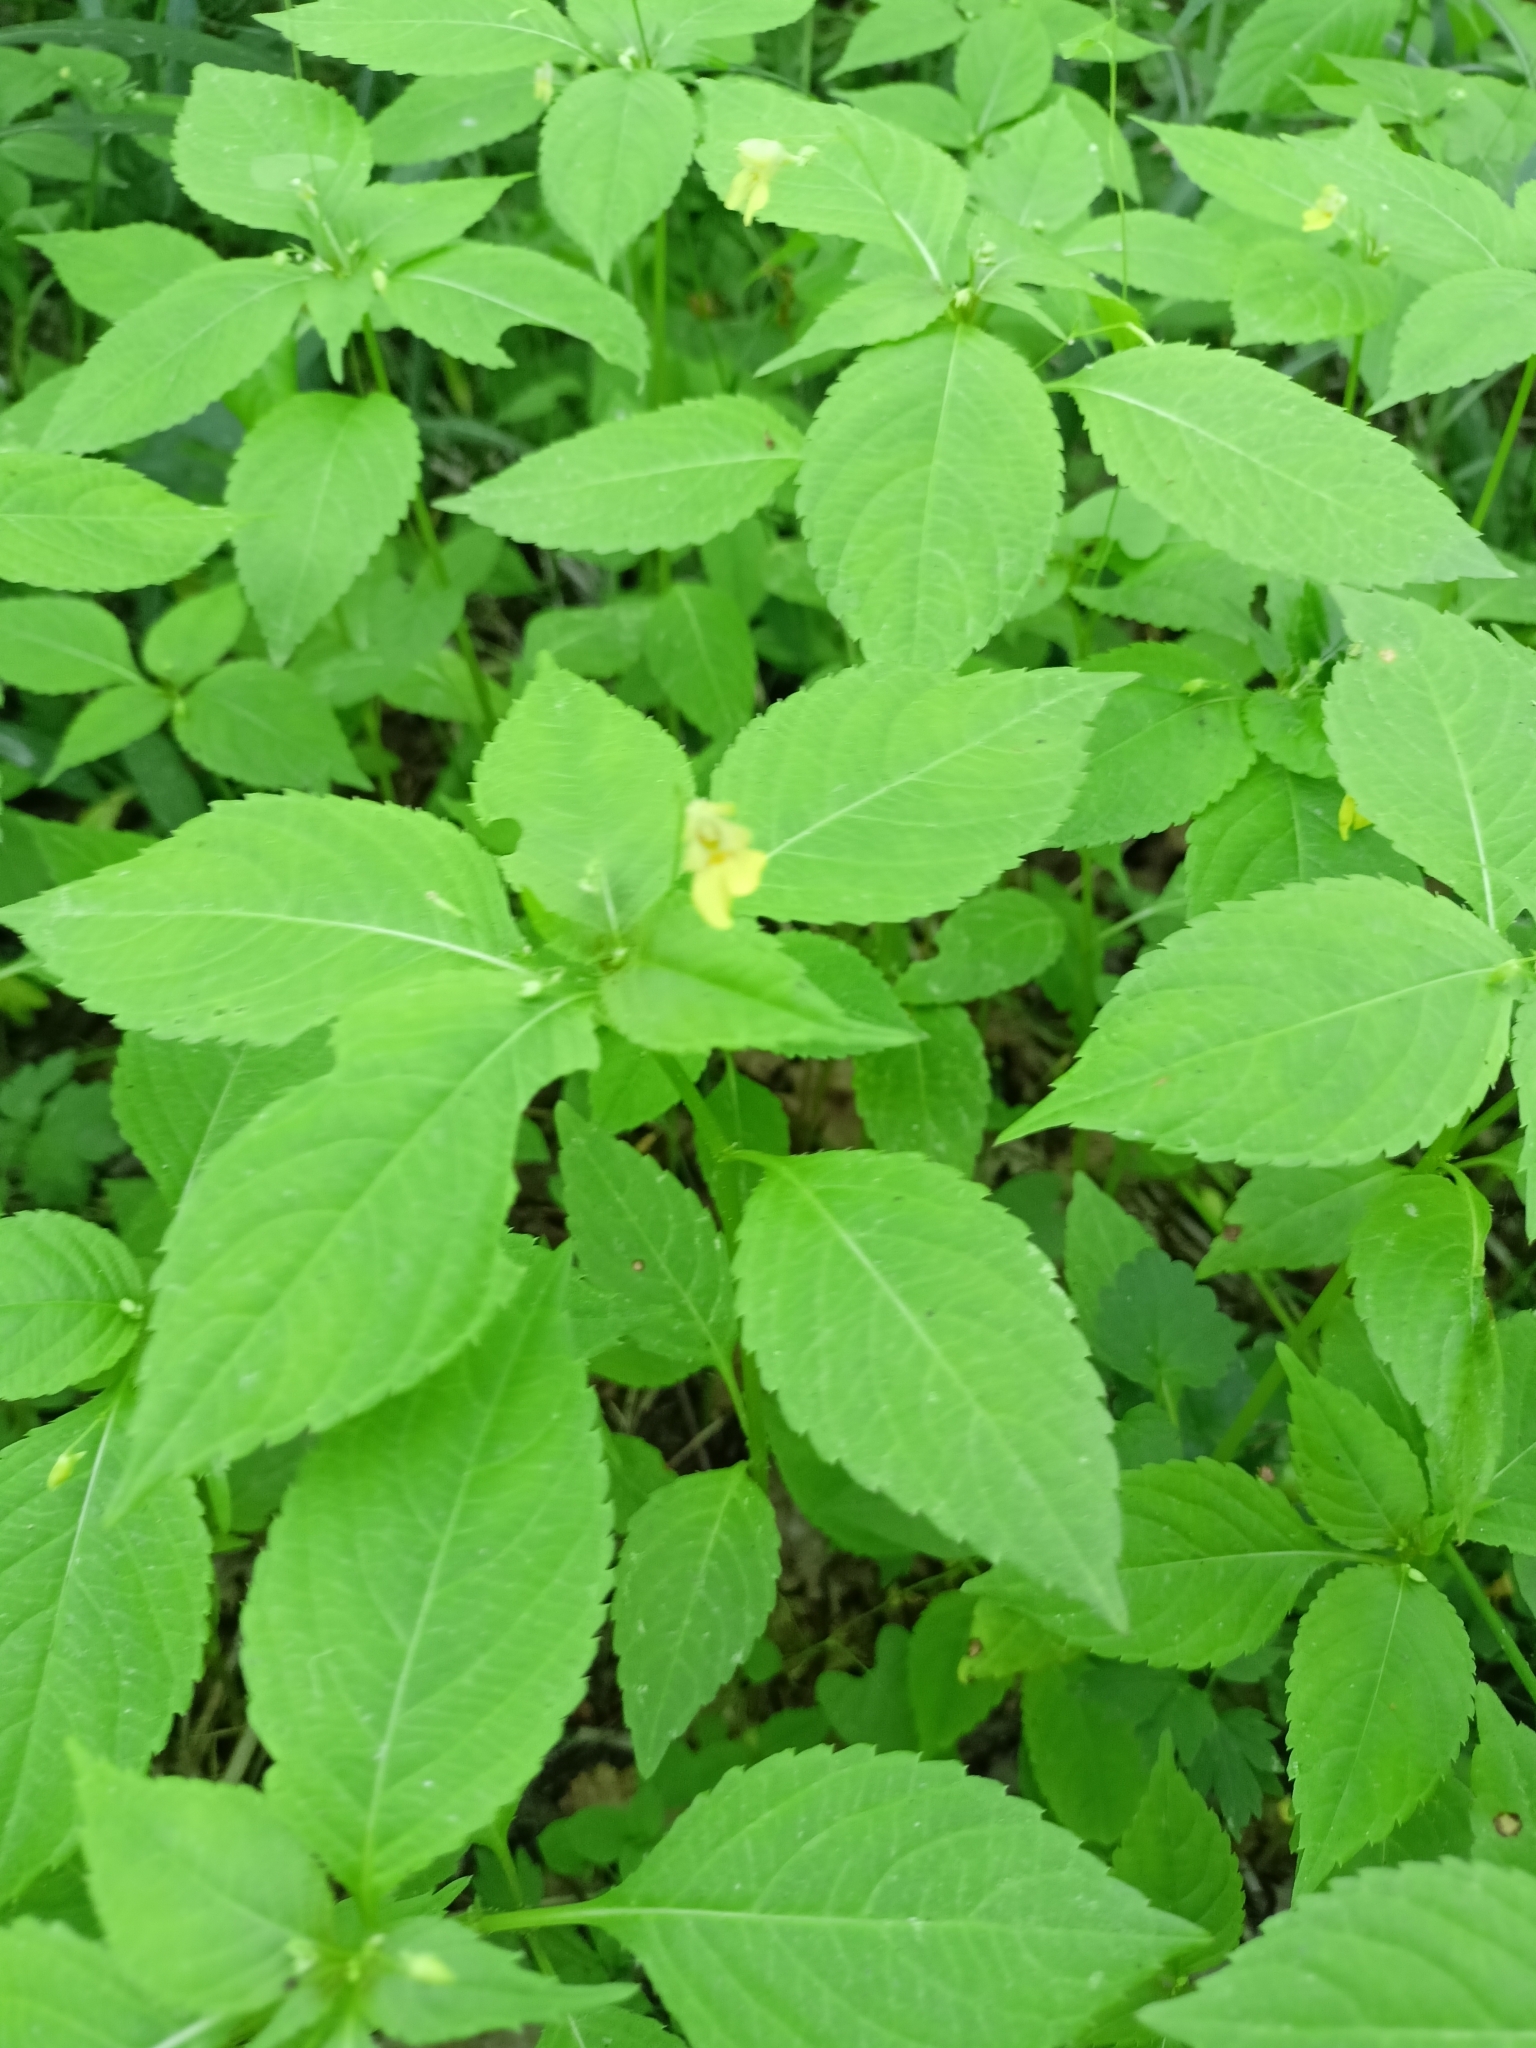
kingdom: Plantae
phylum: Tracheophyta
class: Magnoliopsida
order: Ericales
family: Balsaminaceae
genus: Impatiens
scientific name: Impatiens parviflora
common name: Small balsam
